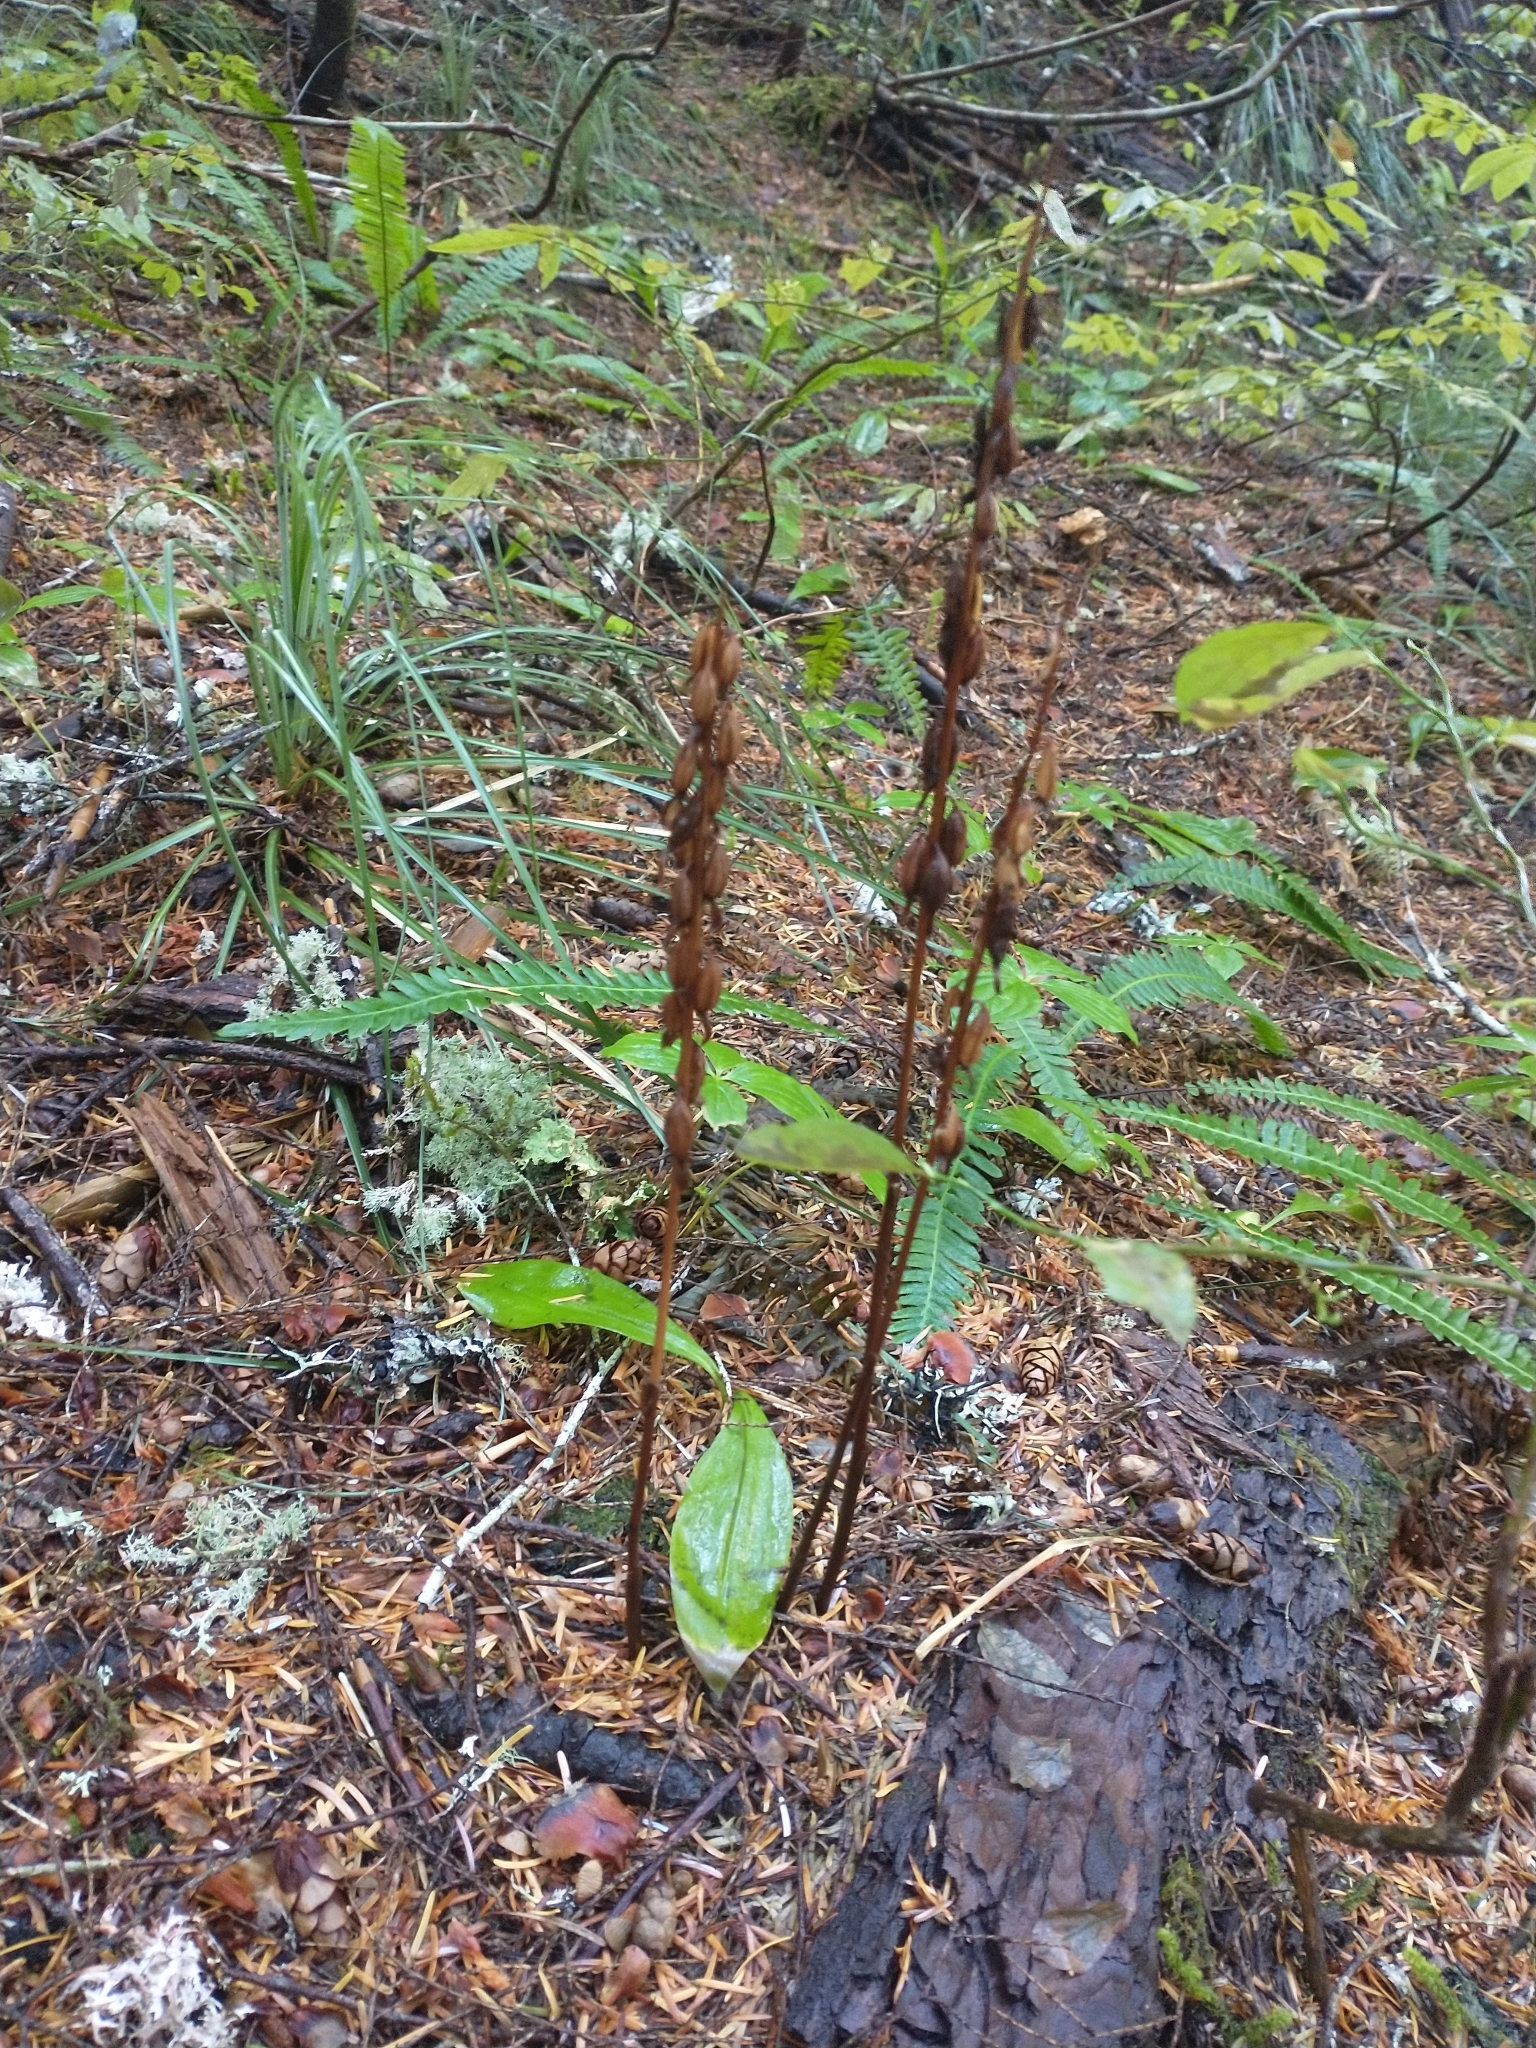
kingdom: Plantae
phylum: Tracheophyta
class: Liliopsida
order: Liliales
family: Liliaceae
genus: Clintonia
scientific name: Clintonia uniflora
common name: Queen's cup
